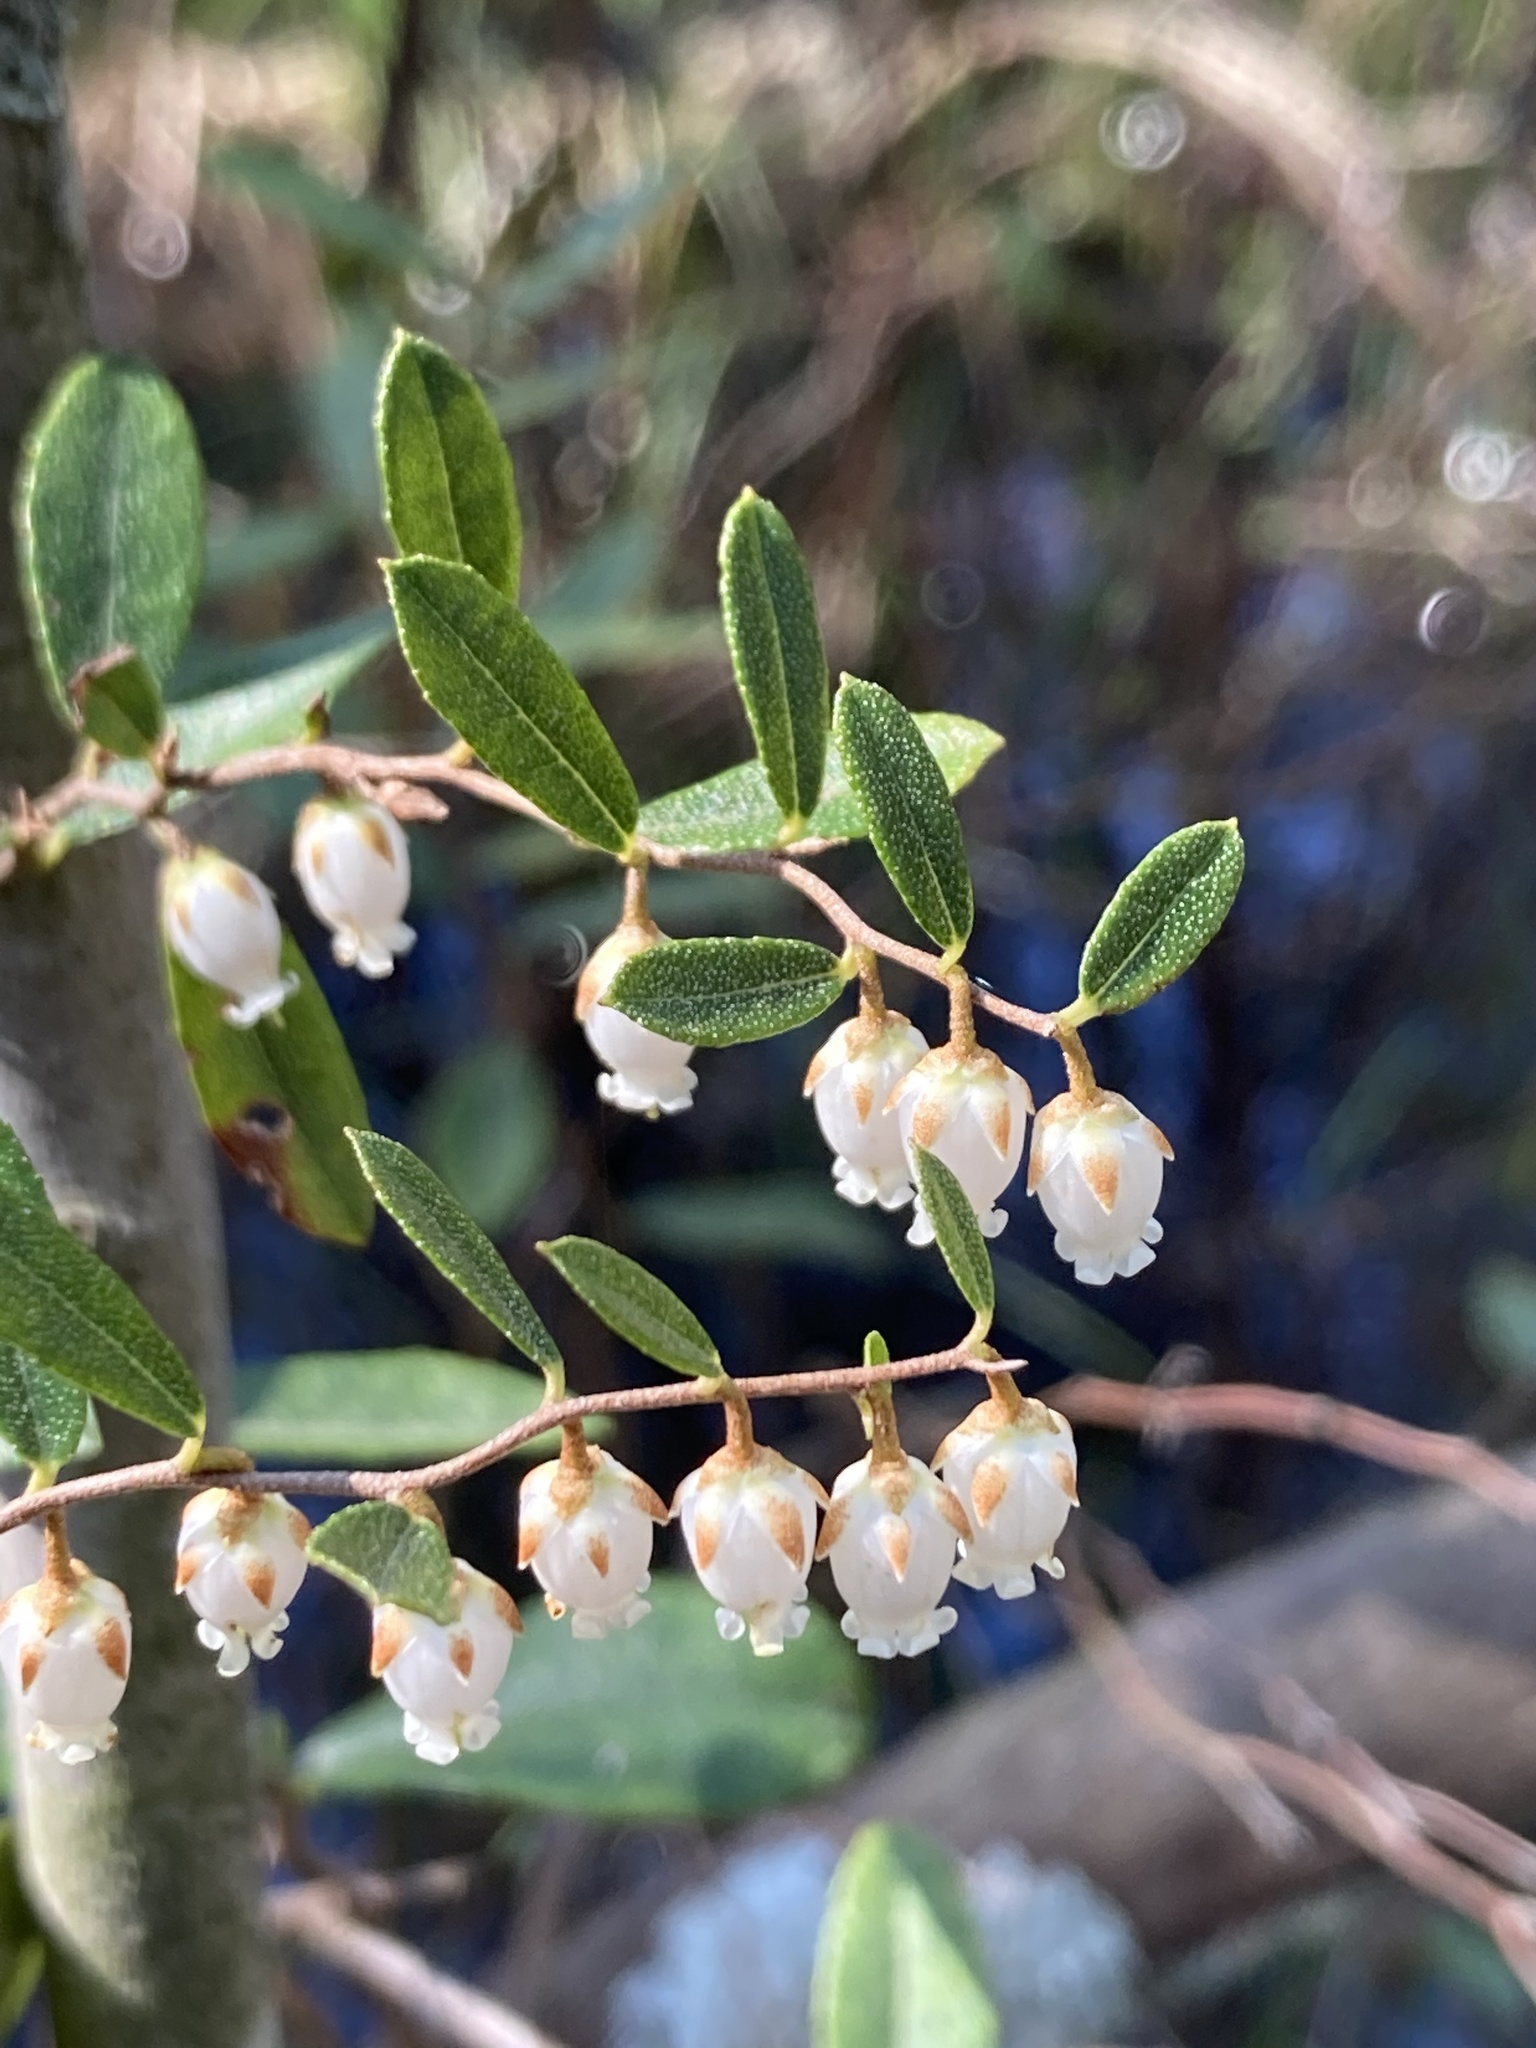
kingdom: Plantae
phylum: Tracheophyta
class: Magnoliopsida
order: Ericales
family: Ericaceae
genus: Chamaedaphne
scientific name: Chamaedaphne calyculata
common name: Leatherleaf
